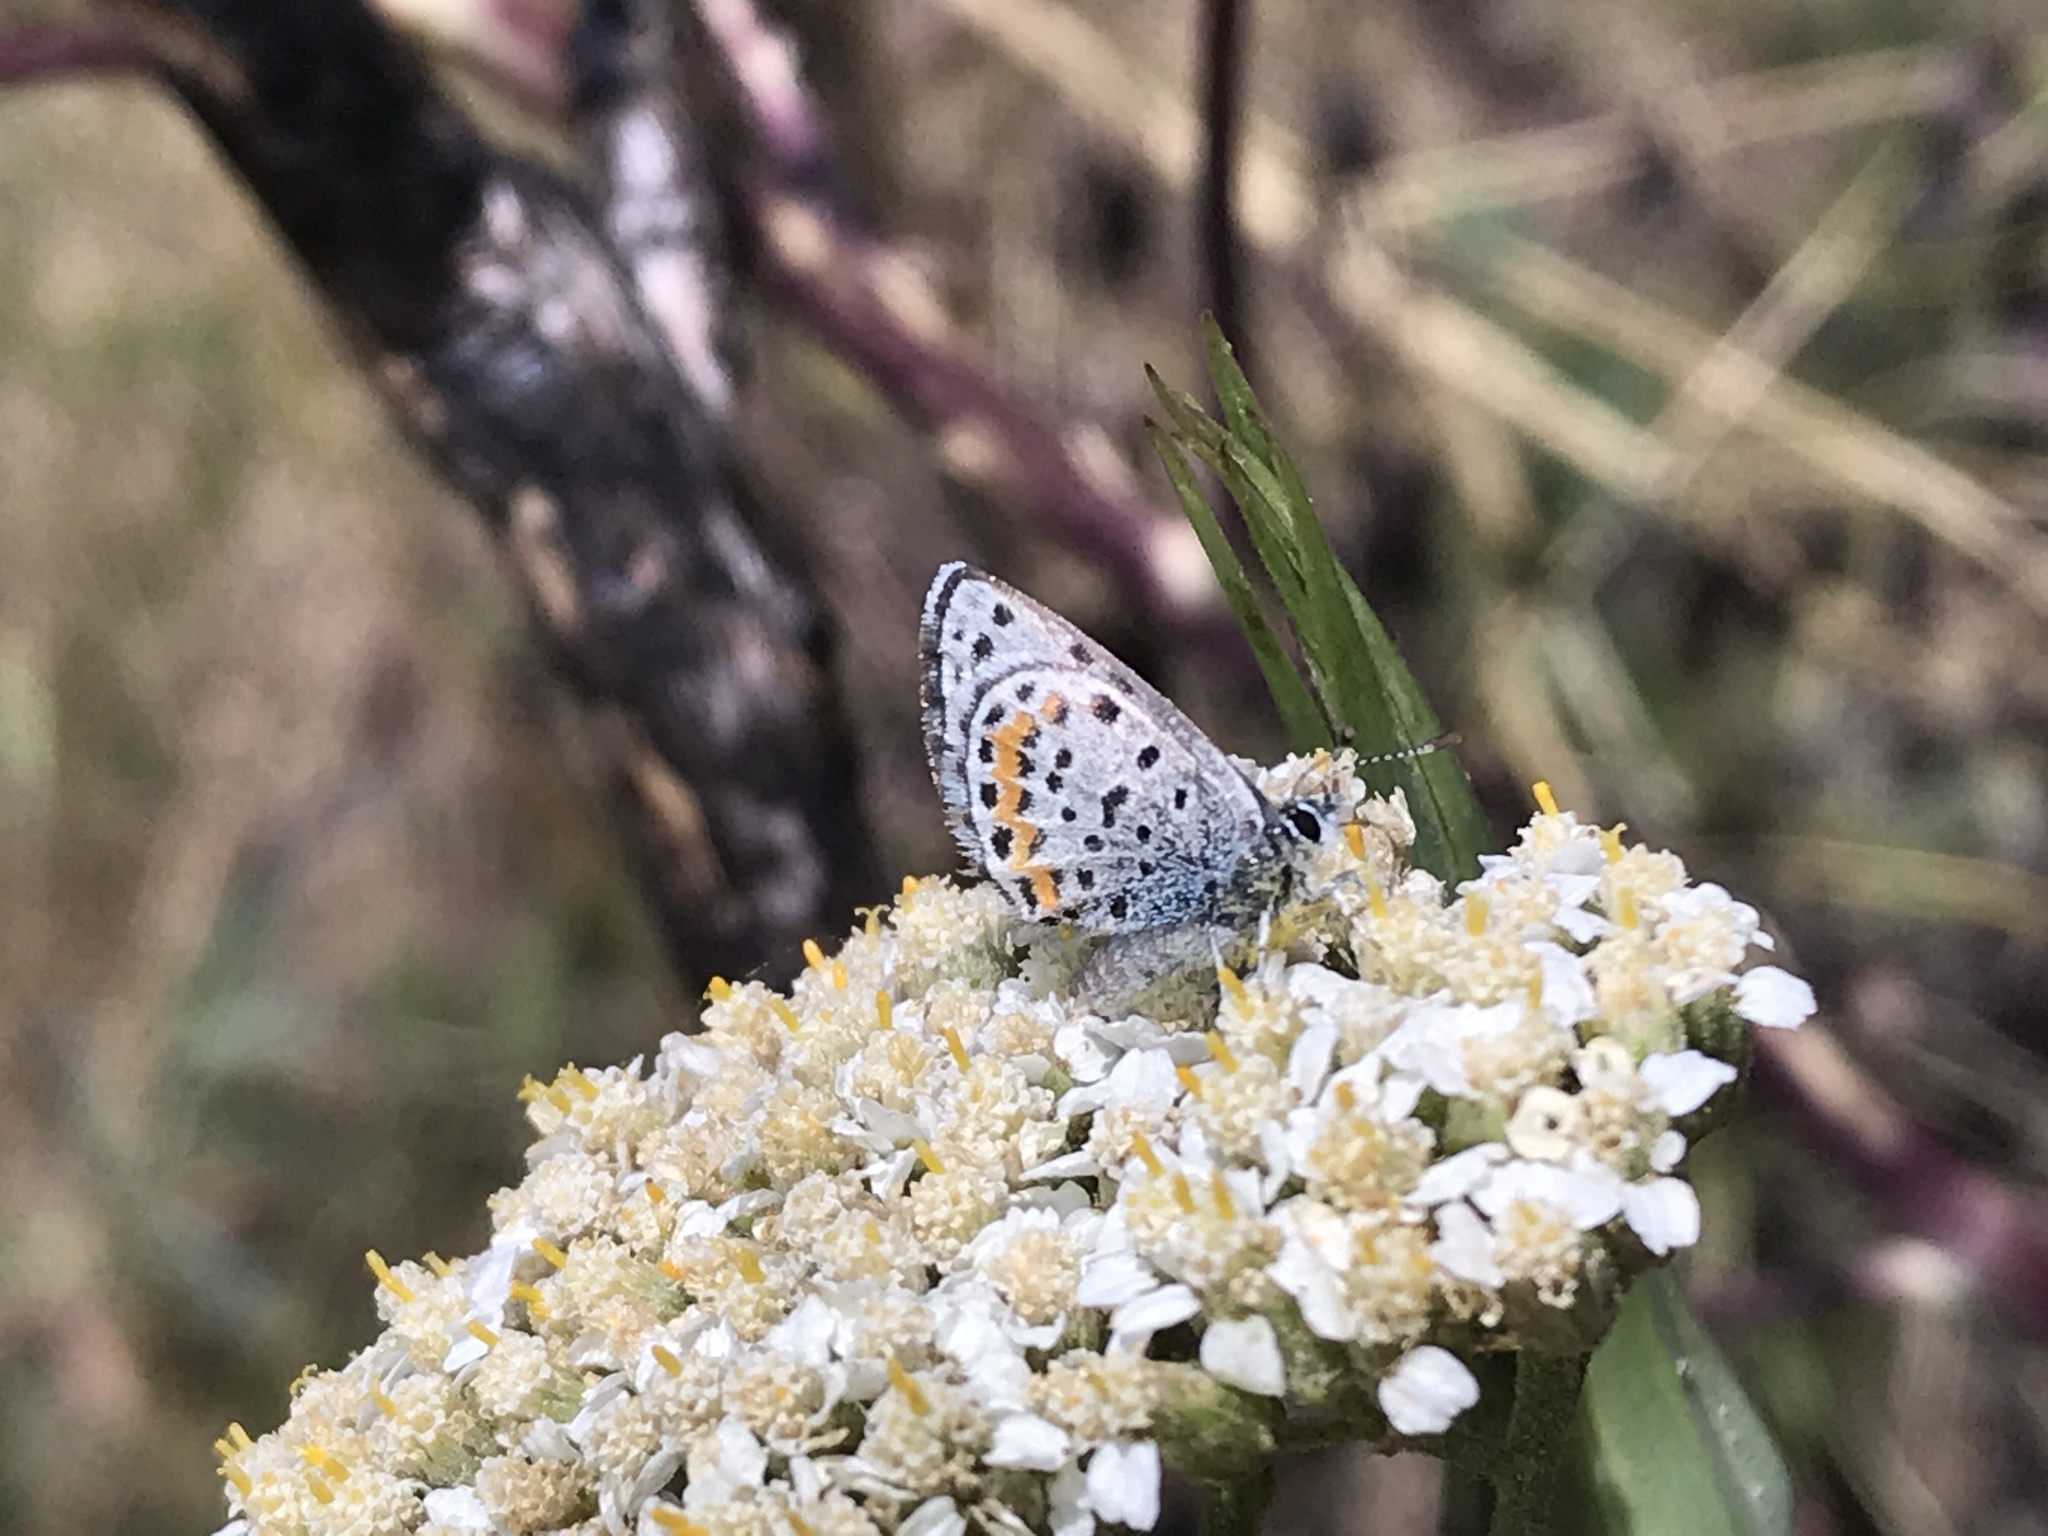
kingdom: Animalia
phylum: Arthropoda
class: Insecta
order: Lepidoptera
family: Lycaenidae
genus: Euphilotes
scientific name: Euphilotes enoptes
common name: Dotted blue
